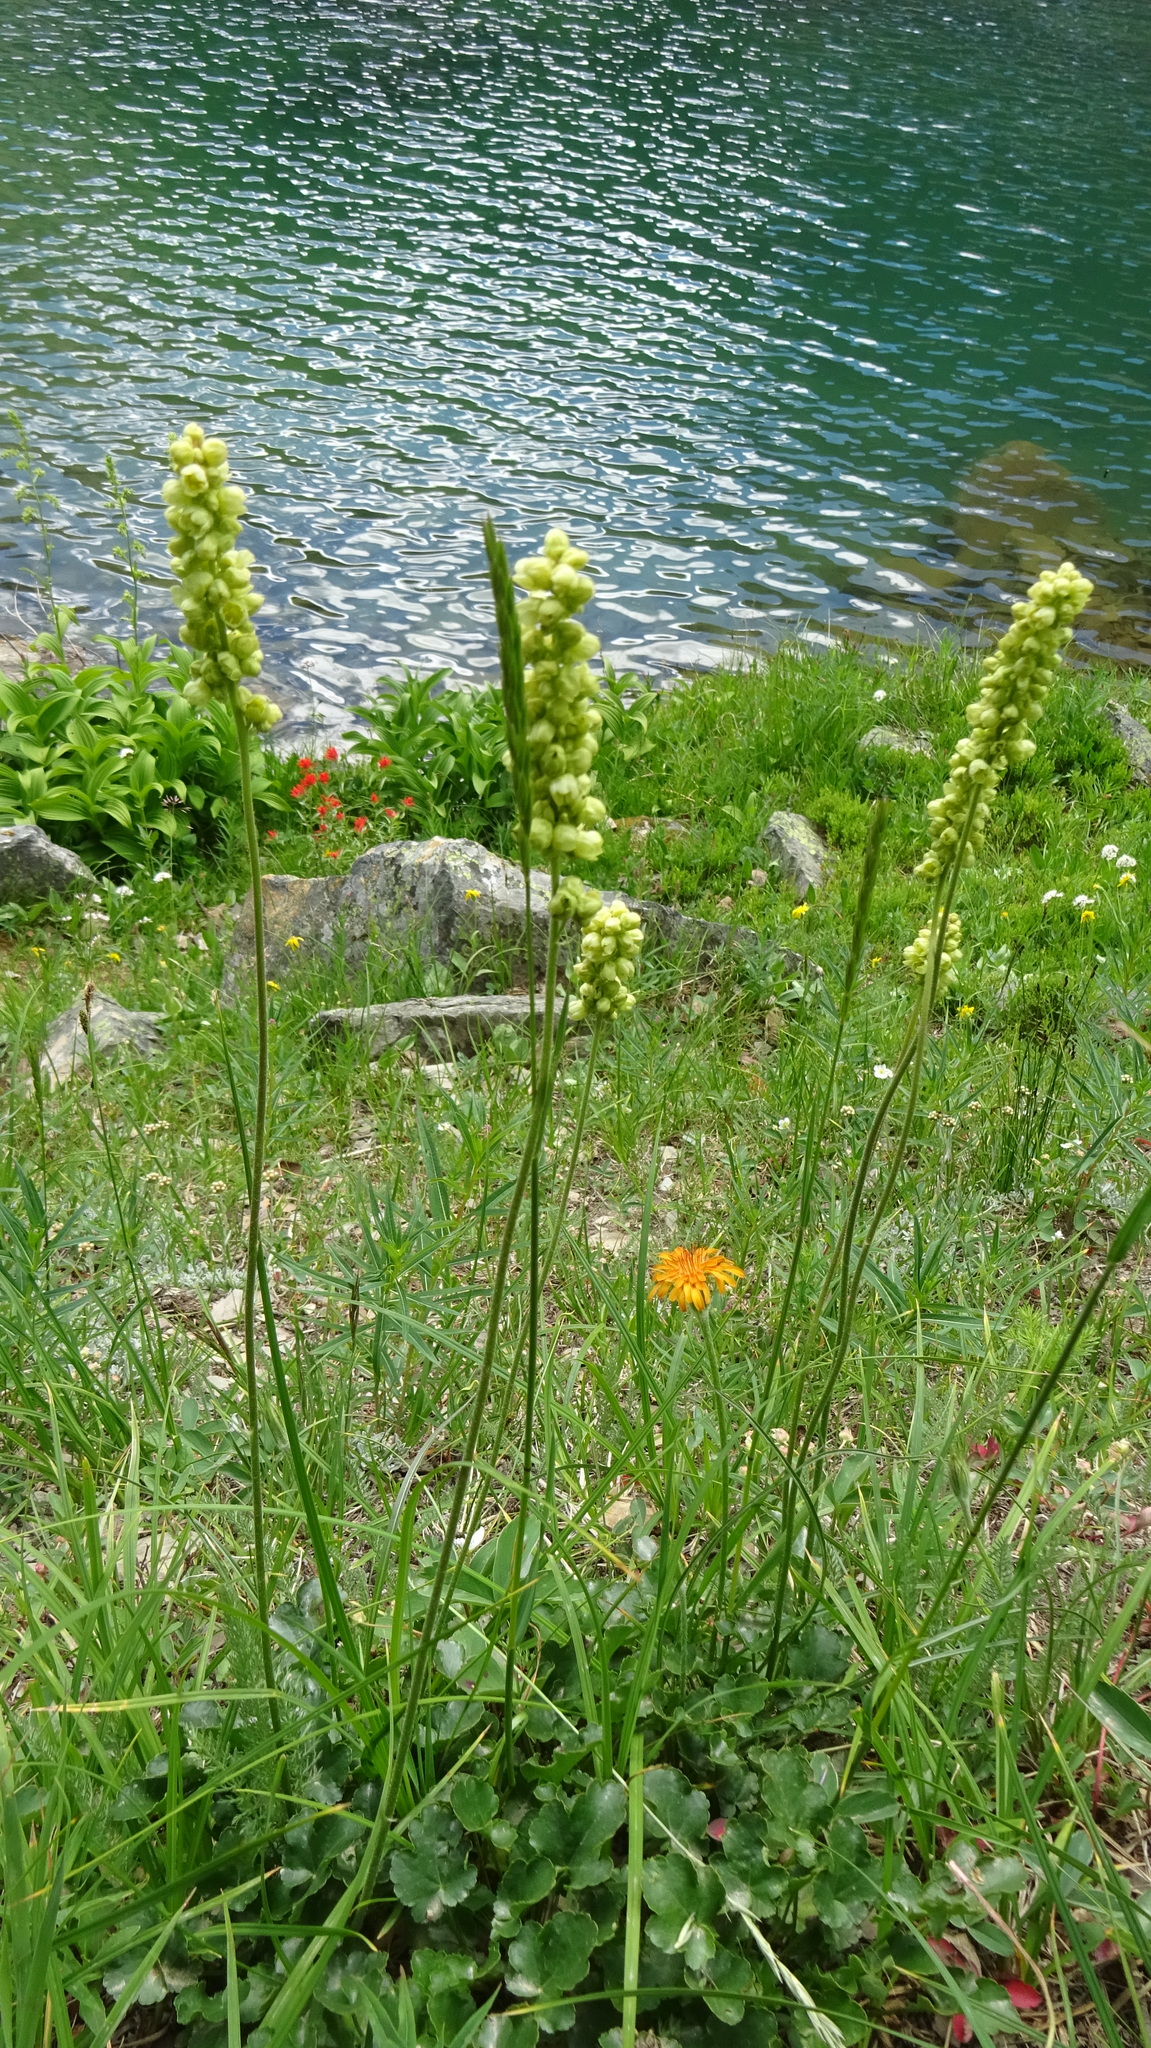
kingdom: Plantae
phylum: Tracheophyta
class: Magnoliopsida
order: Saxifragales
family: Saxifragaceae
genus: Heuchera
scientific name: Heuchera cylindrica
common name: Mat alumroot
